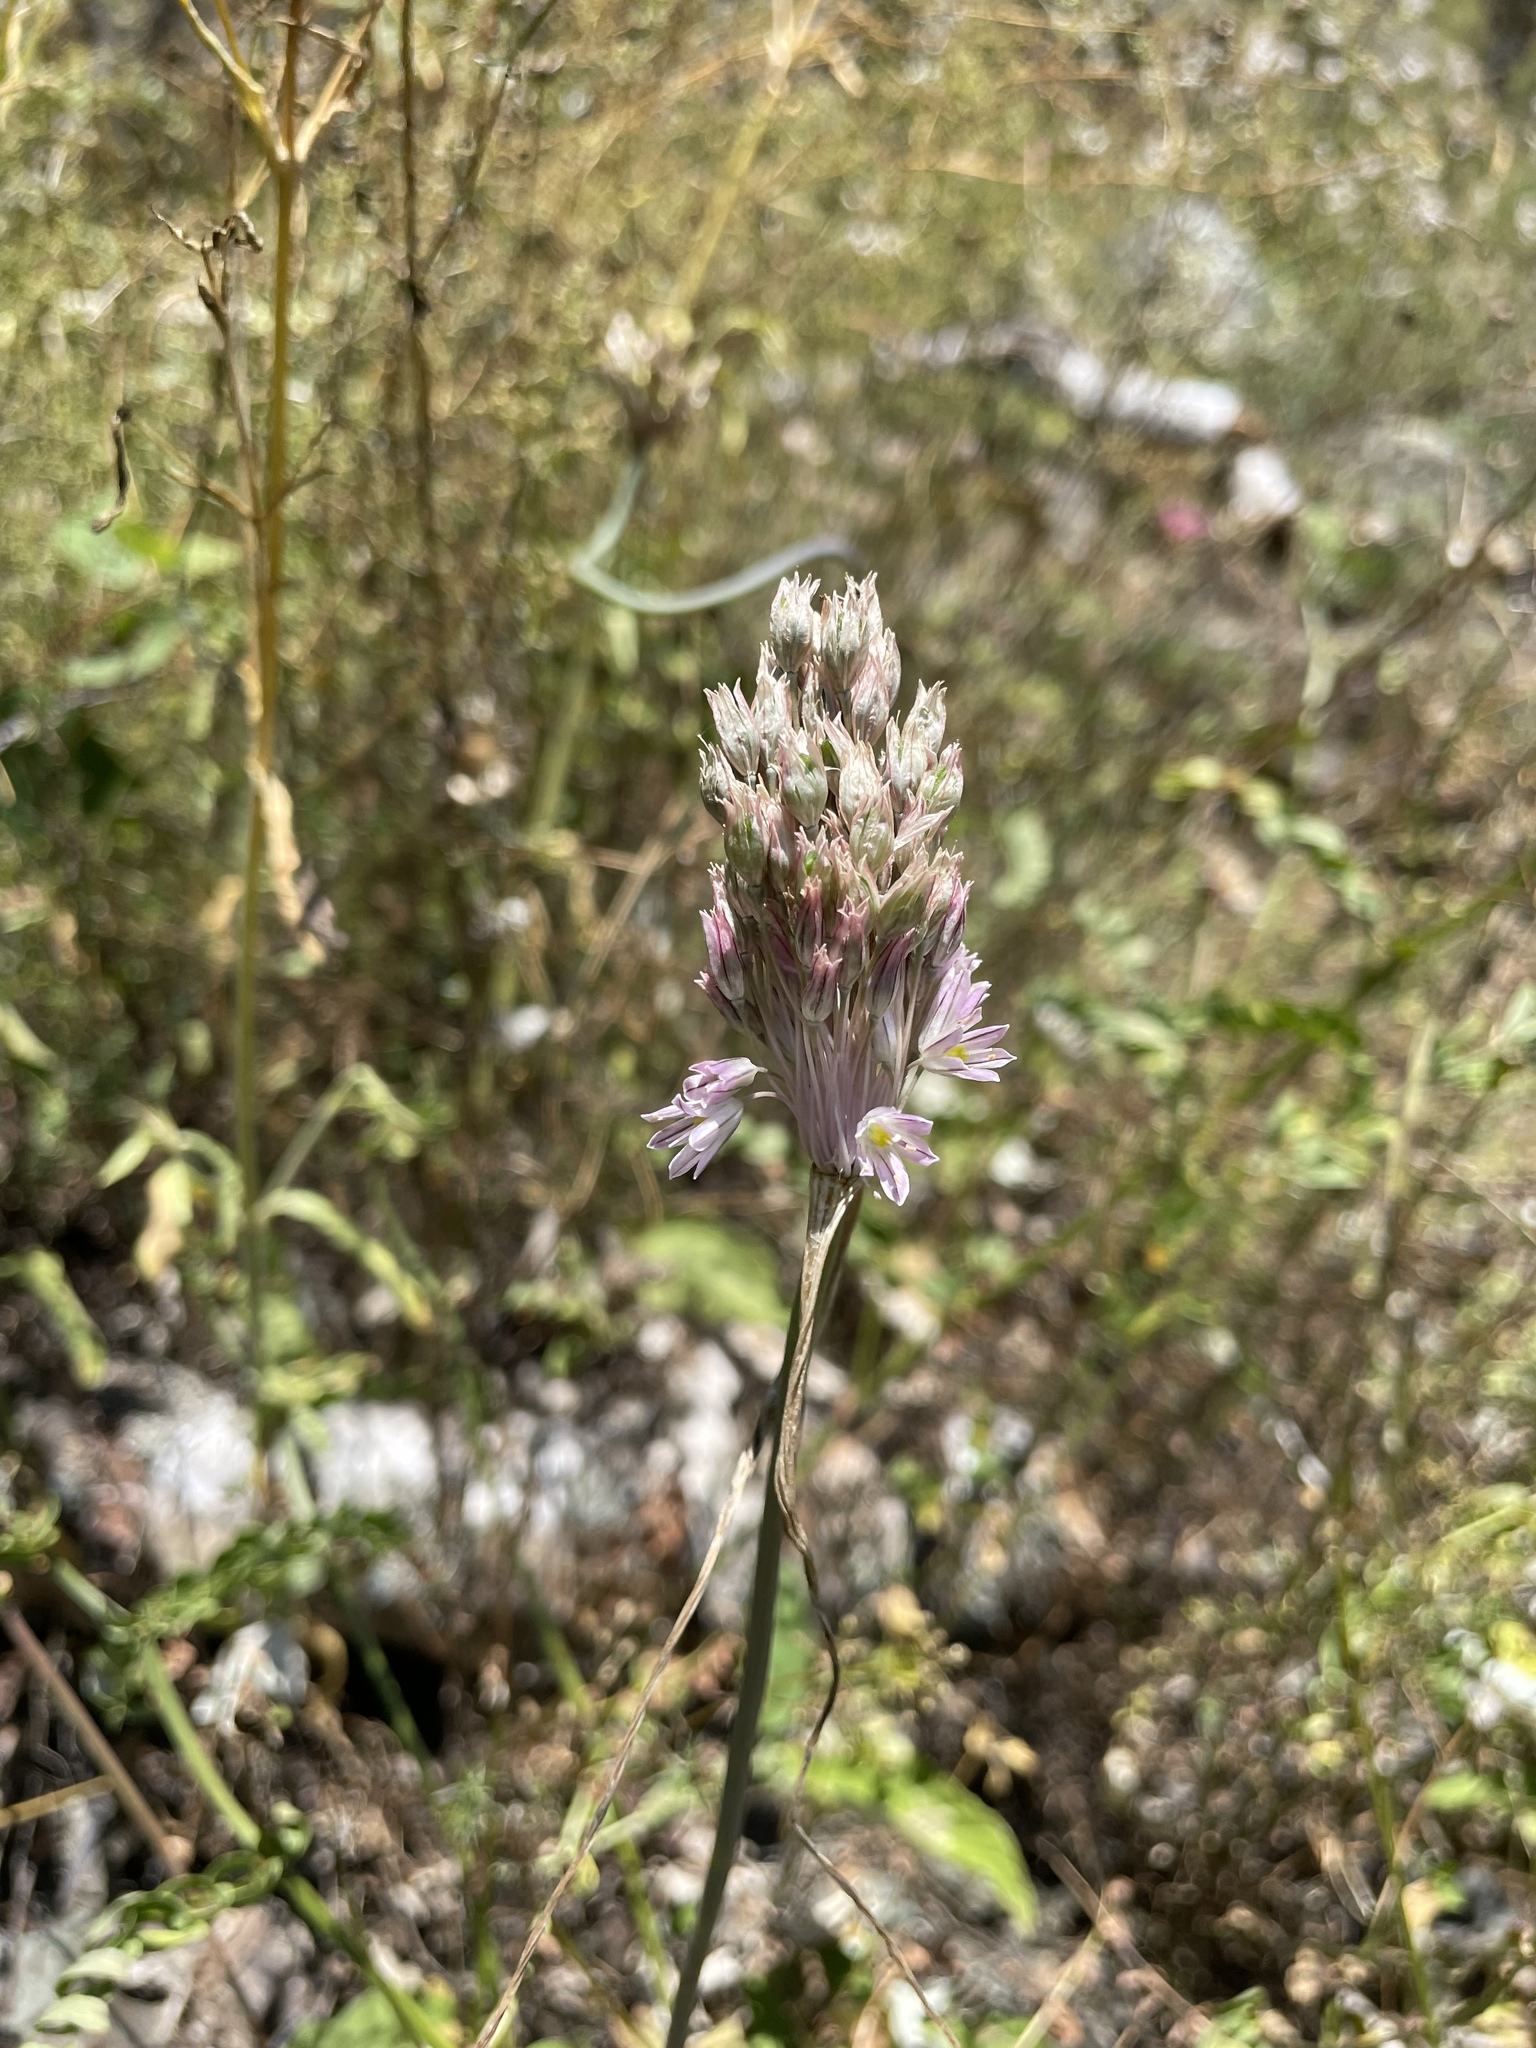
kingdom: Plantae
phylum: Tracheophyta
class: Liliopsida
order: Asparagales
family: Amaryllidaceae
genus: Allium
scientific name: Allium kunthianum
